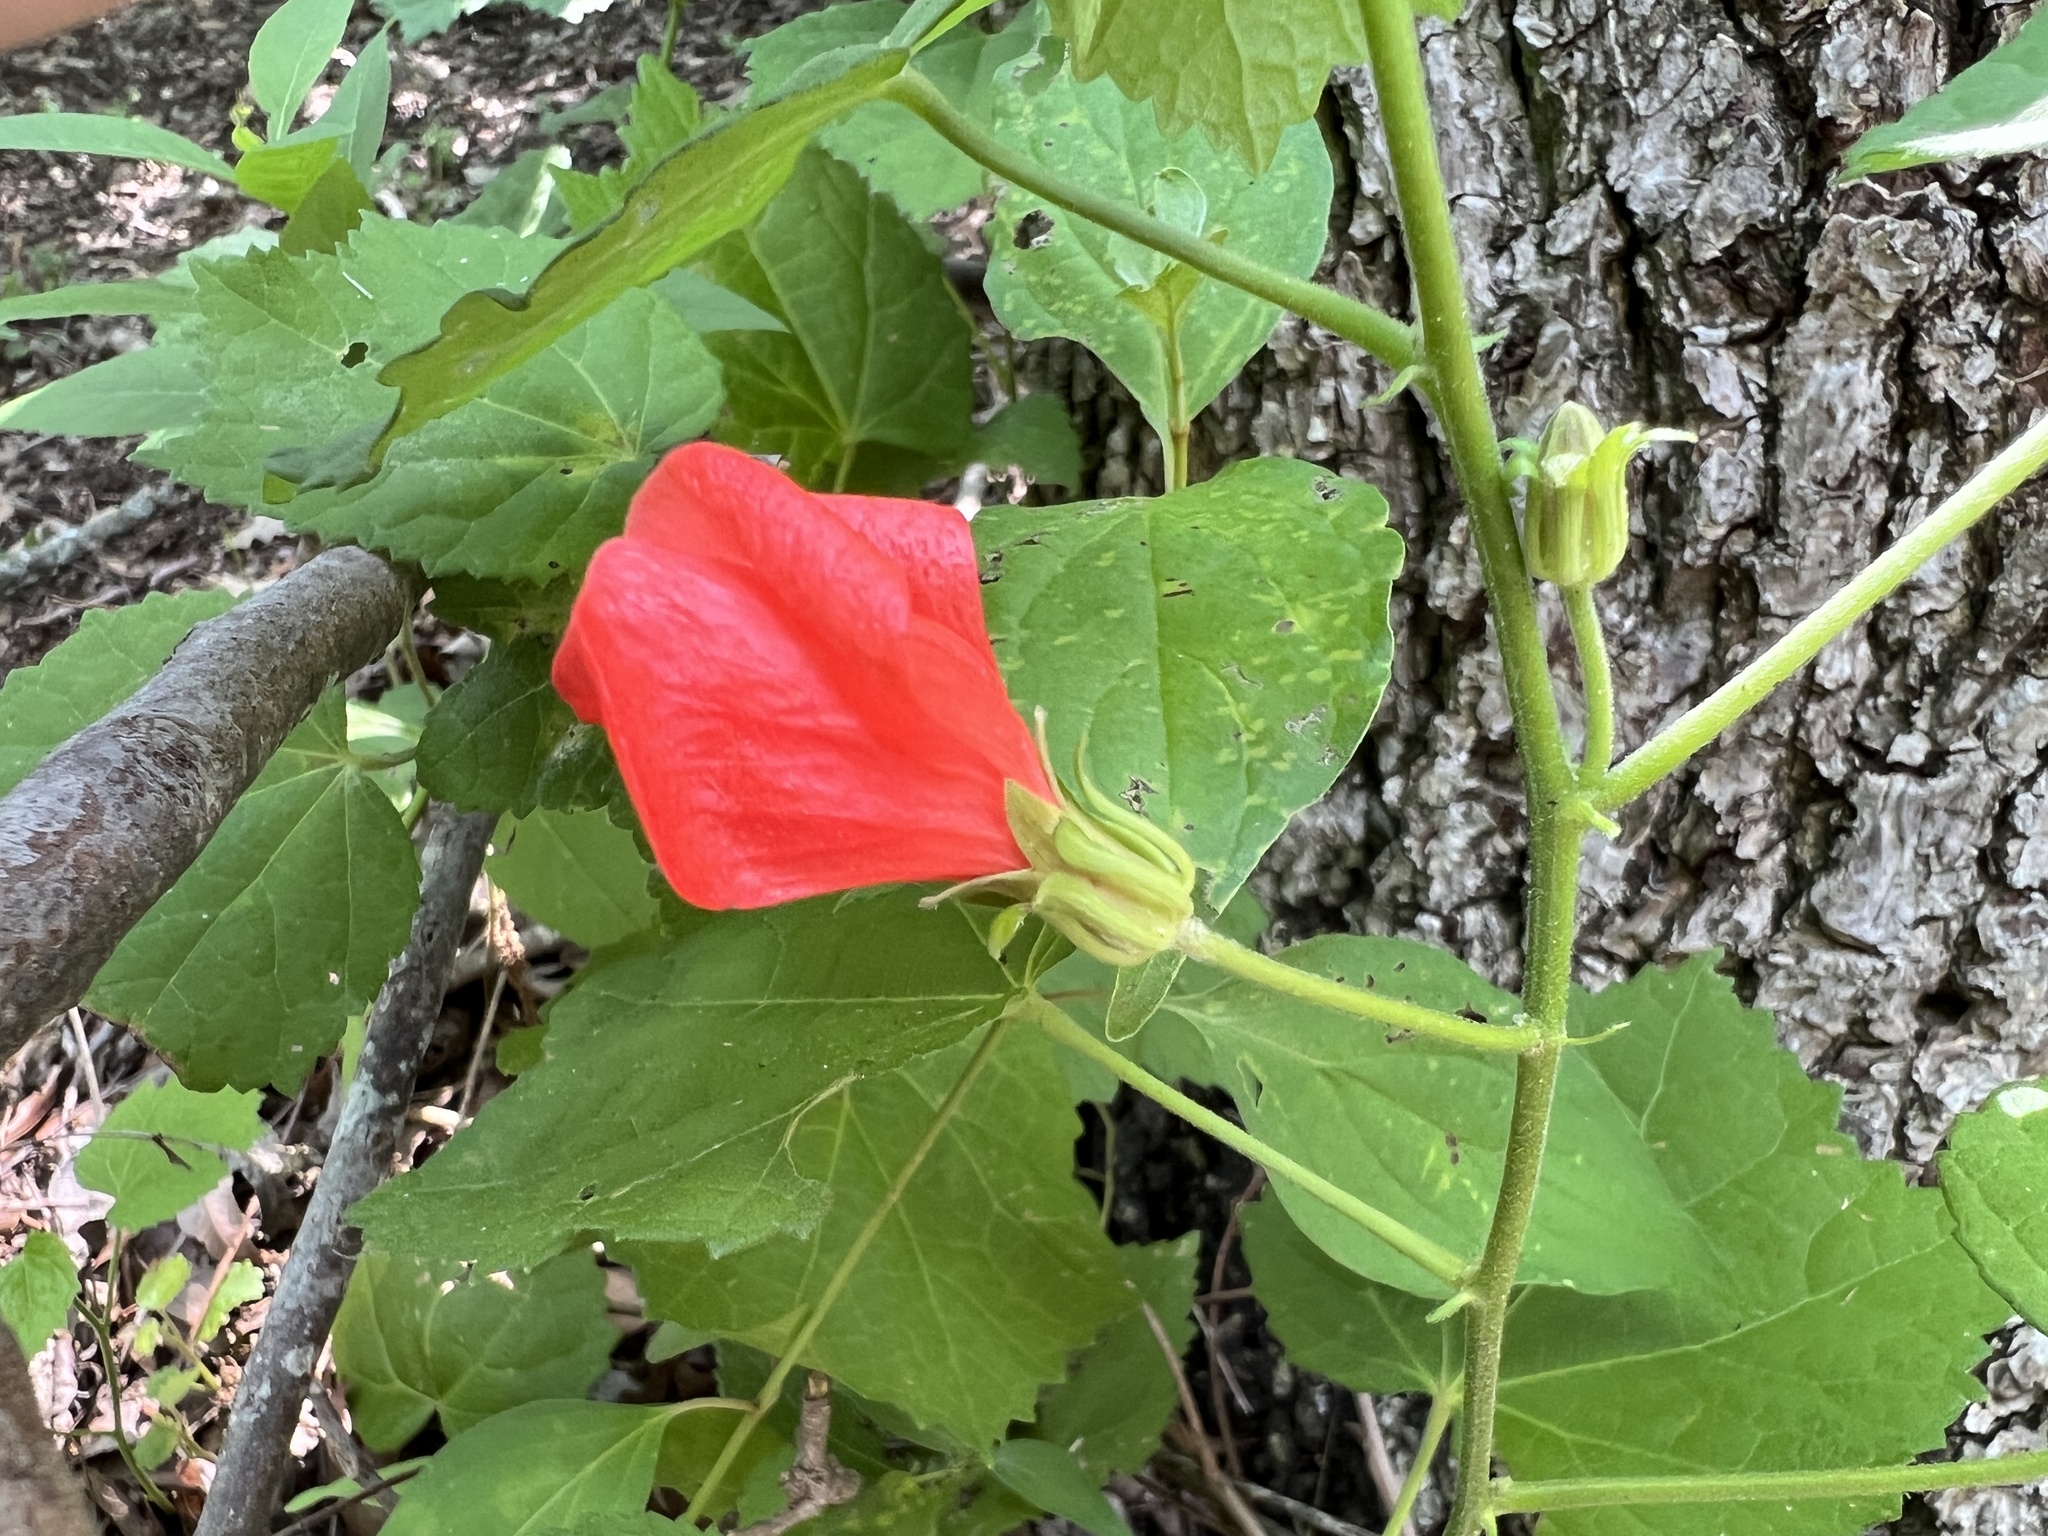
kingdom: Plantae
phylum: Tracheophyta
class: Magnoliopsida
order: Malvales
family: Malvaceae
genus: Malvaviscus
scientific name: Malvaviscus arboreus
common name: Wax mallow
